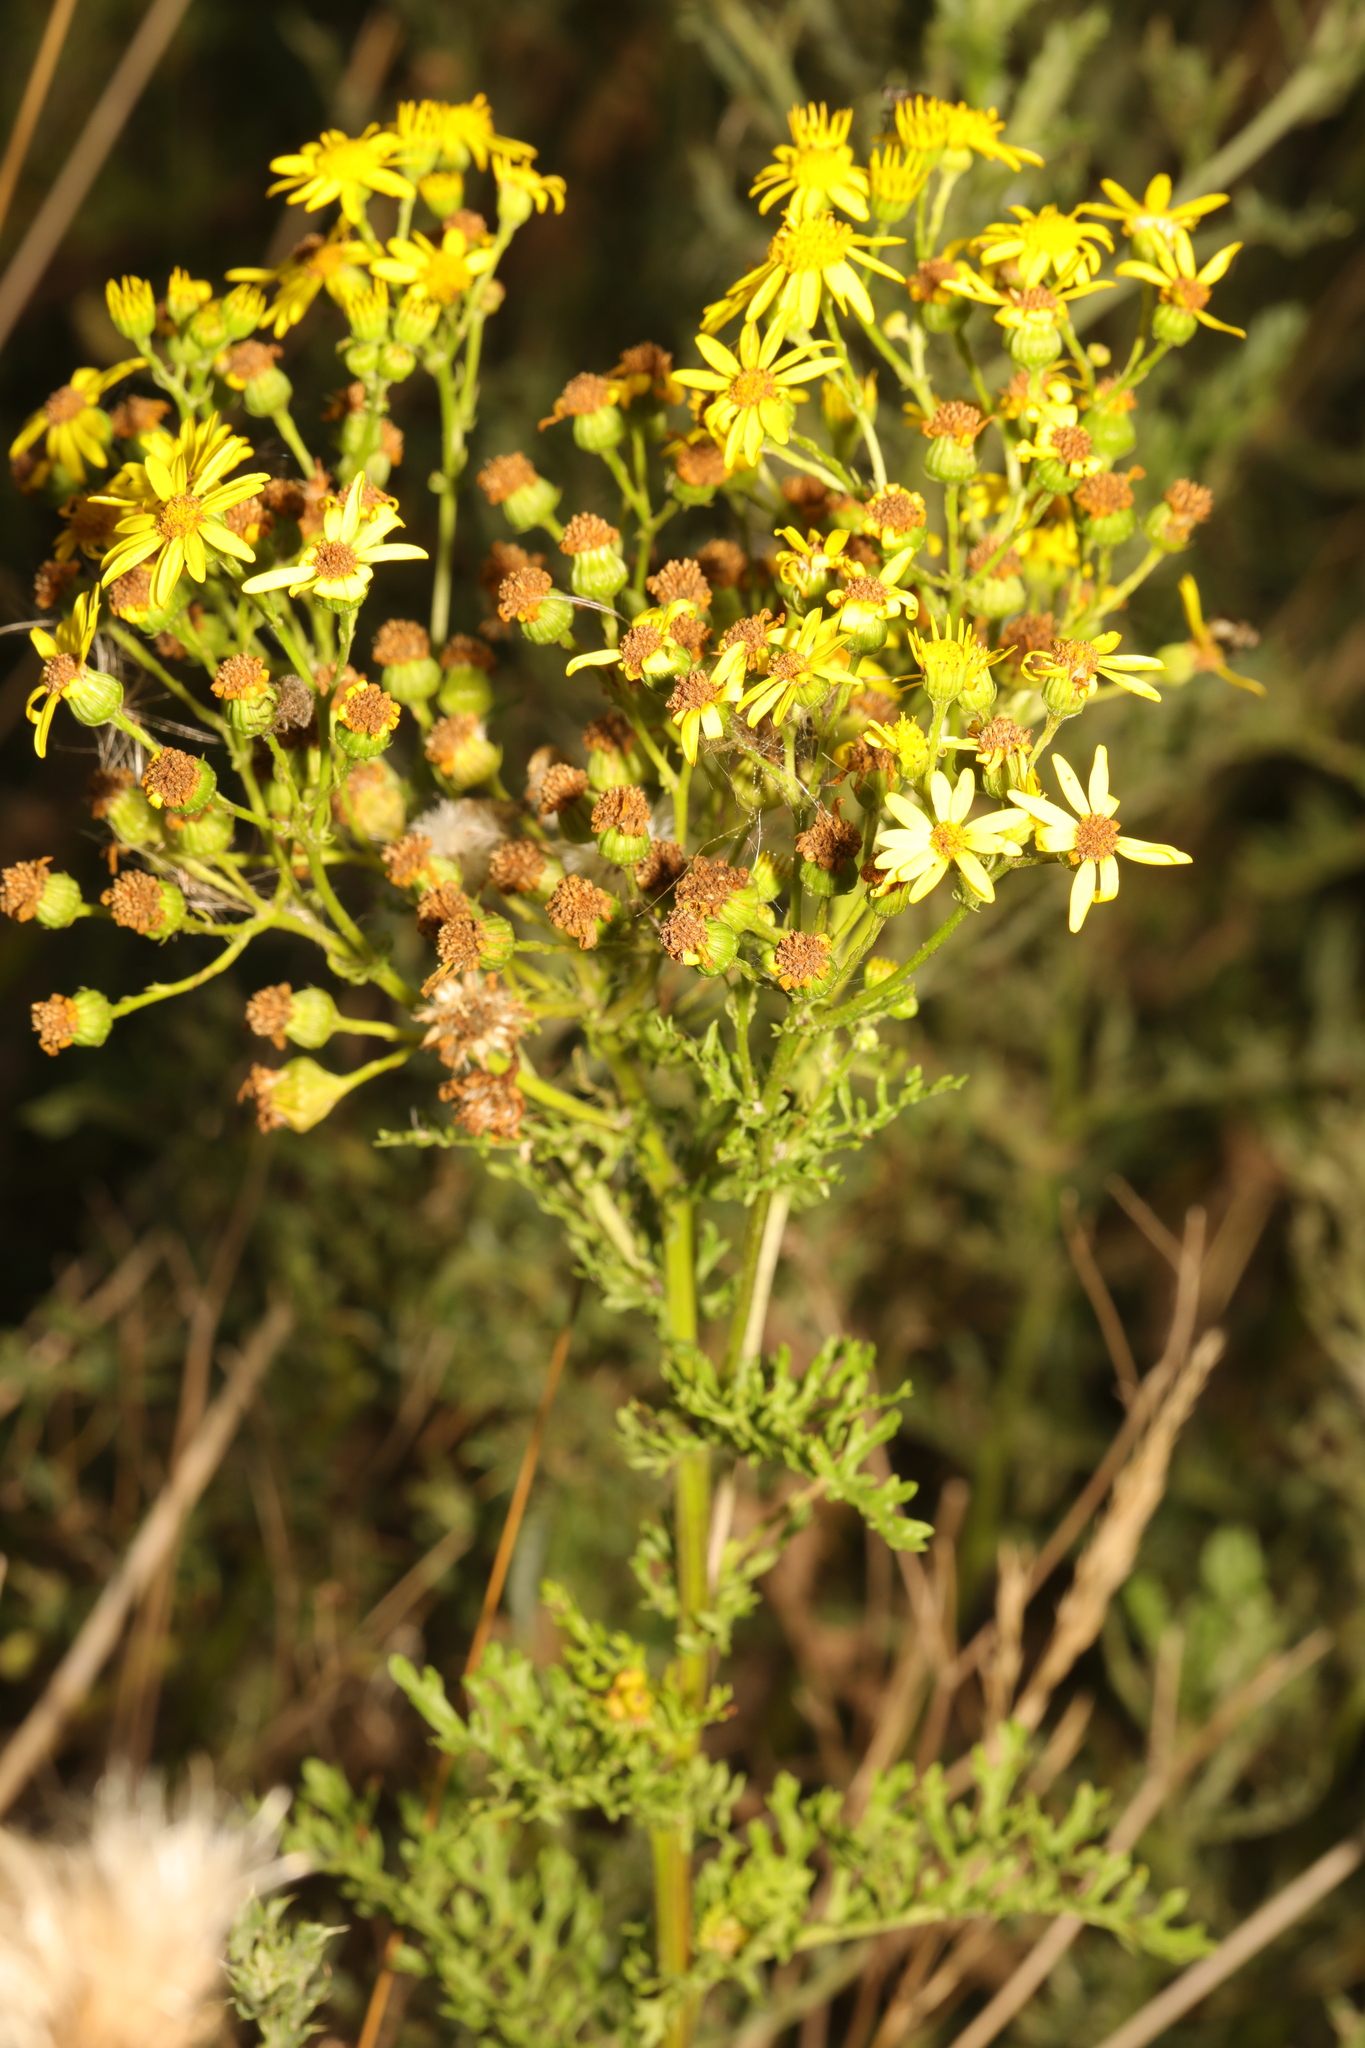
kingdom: Plantae
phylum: Tracheophyta
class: Magnoliopsida
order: Asterales
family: Asteraceae
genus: Jacobaea
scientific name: Jacobaea vulgaris
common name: Stinking willie
